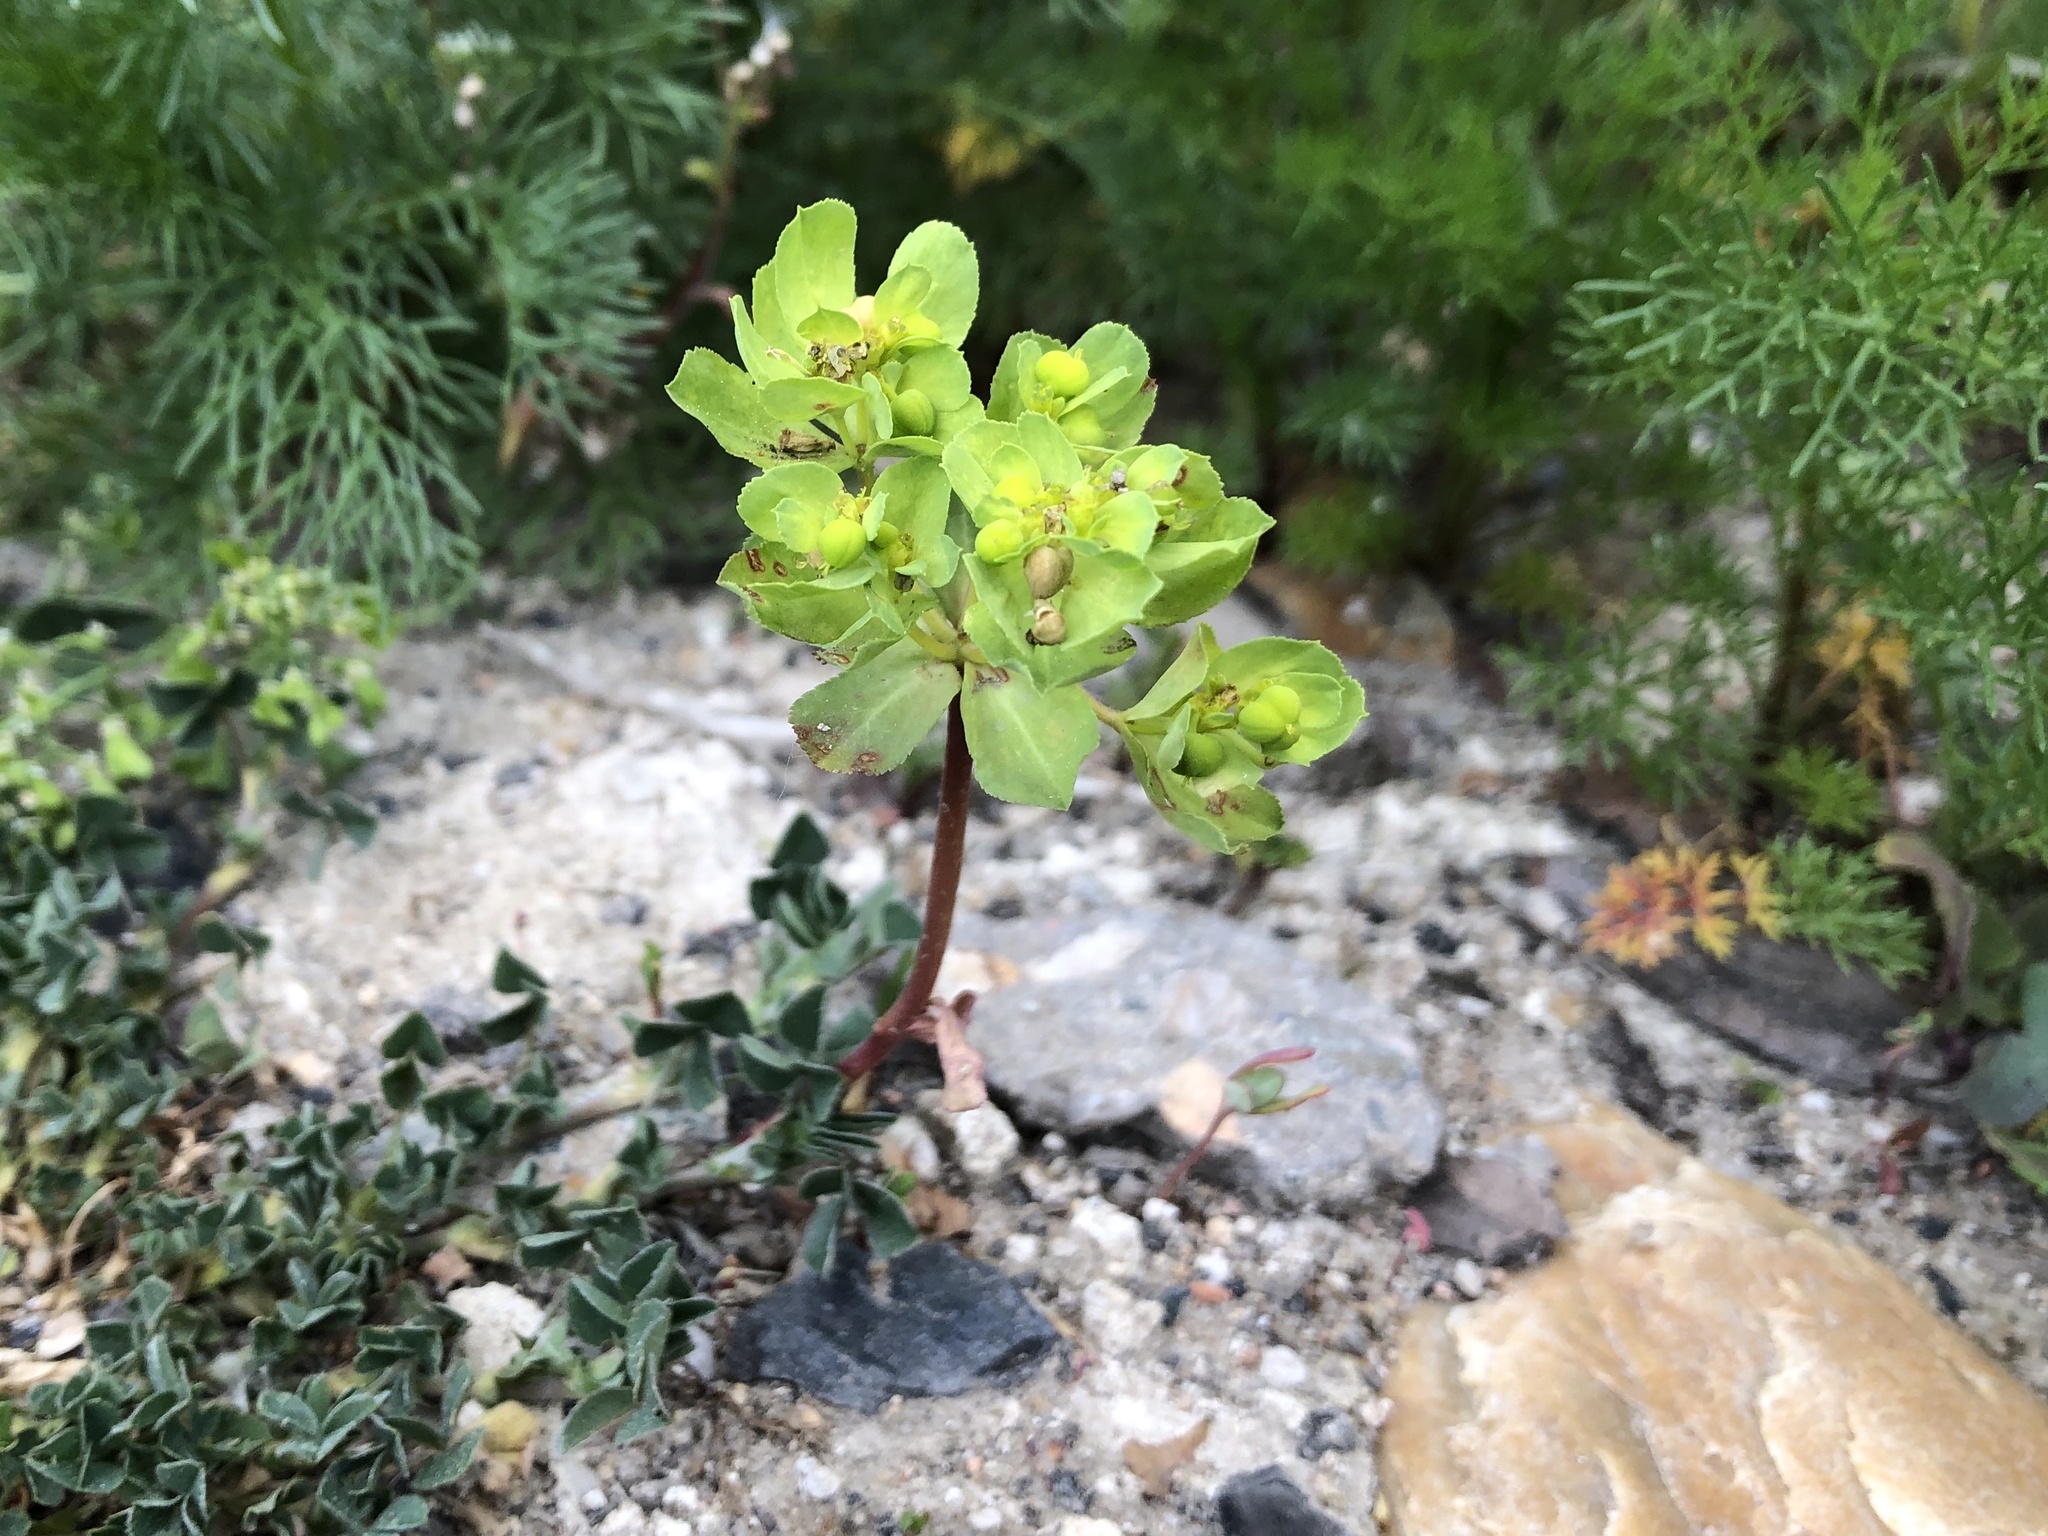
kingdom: Plantae
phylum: Tracheophyta
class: Magnoliopsida
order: Malpighiales
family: Euphorbiaceae
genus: Euphorbia
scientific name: Euphorbia helioscopia
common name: Sun spurge
